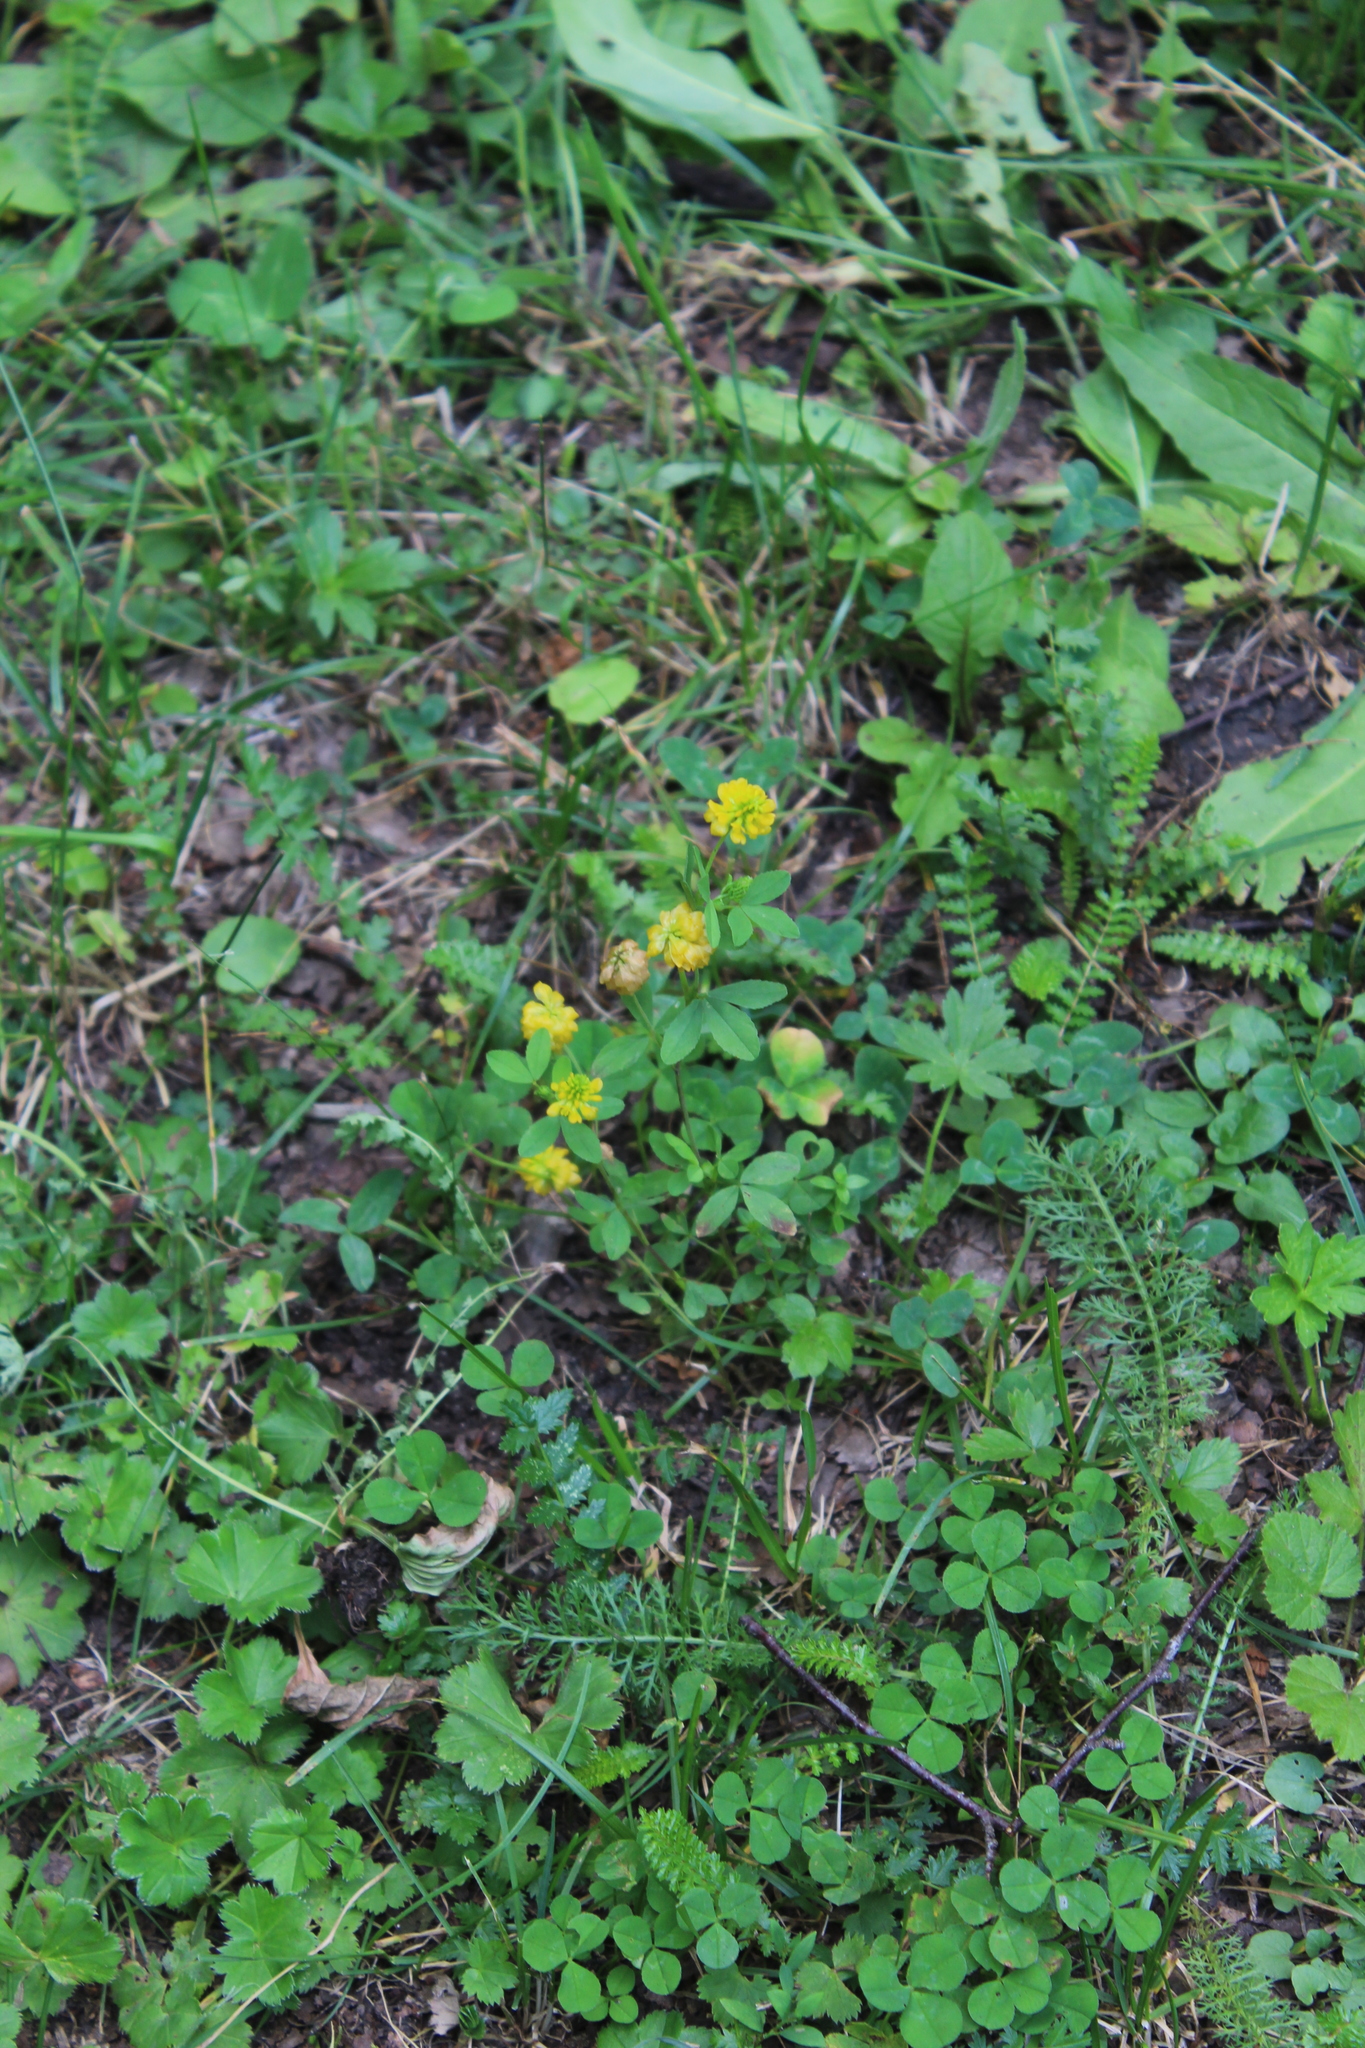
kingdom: Plantae
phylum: Tracheophyta
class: Magnoliopsida
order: Fabales
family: Fabaceae
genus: Trifolium
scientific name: Trifolium aureum
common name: Golden clover
